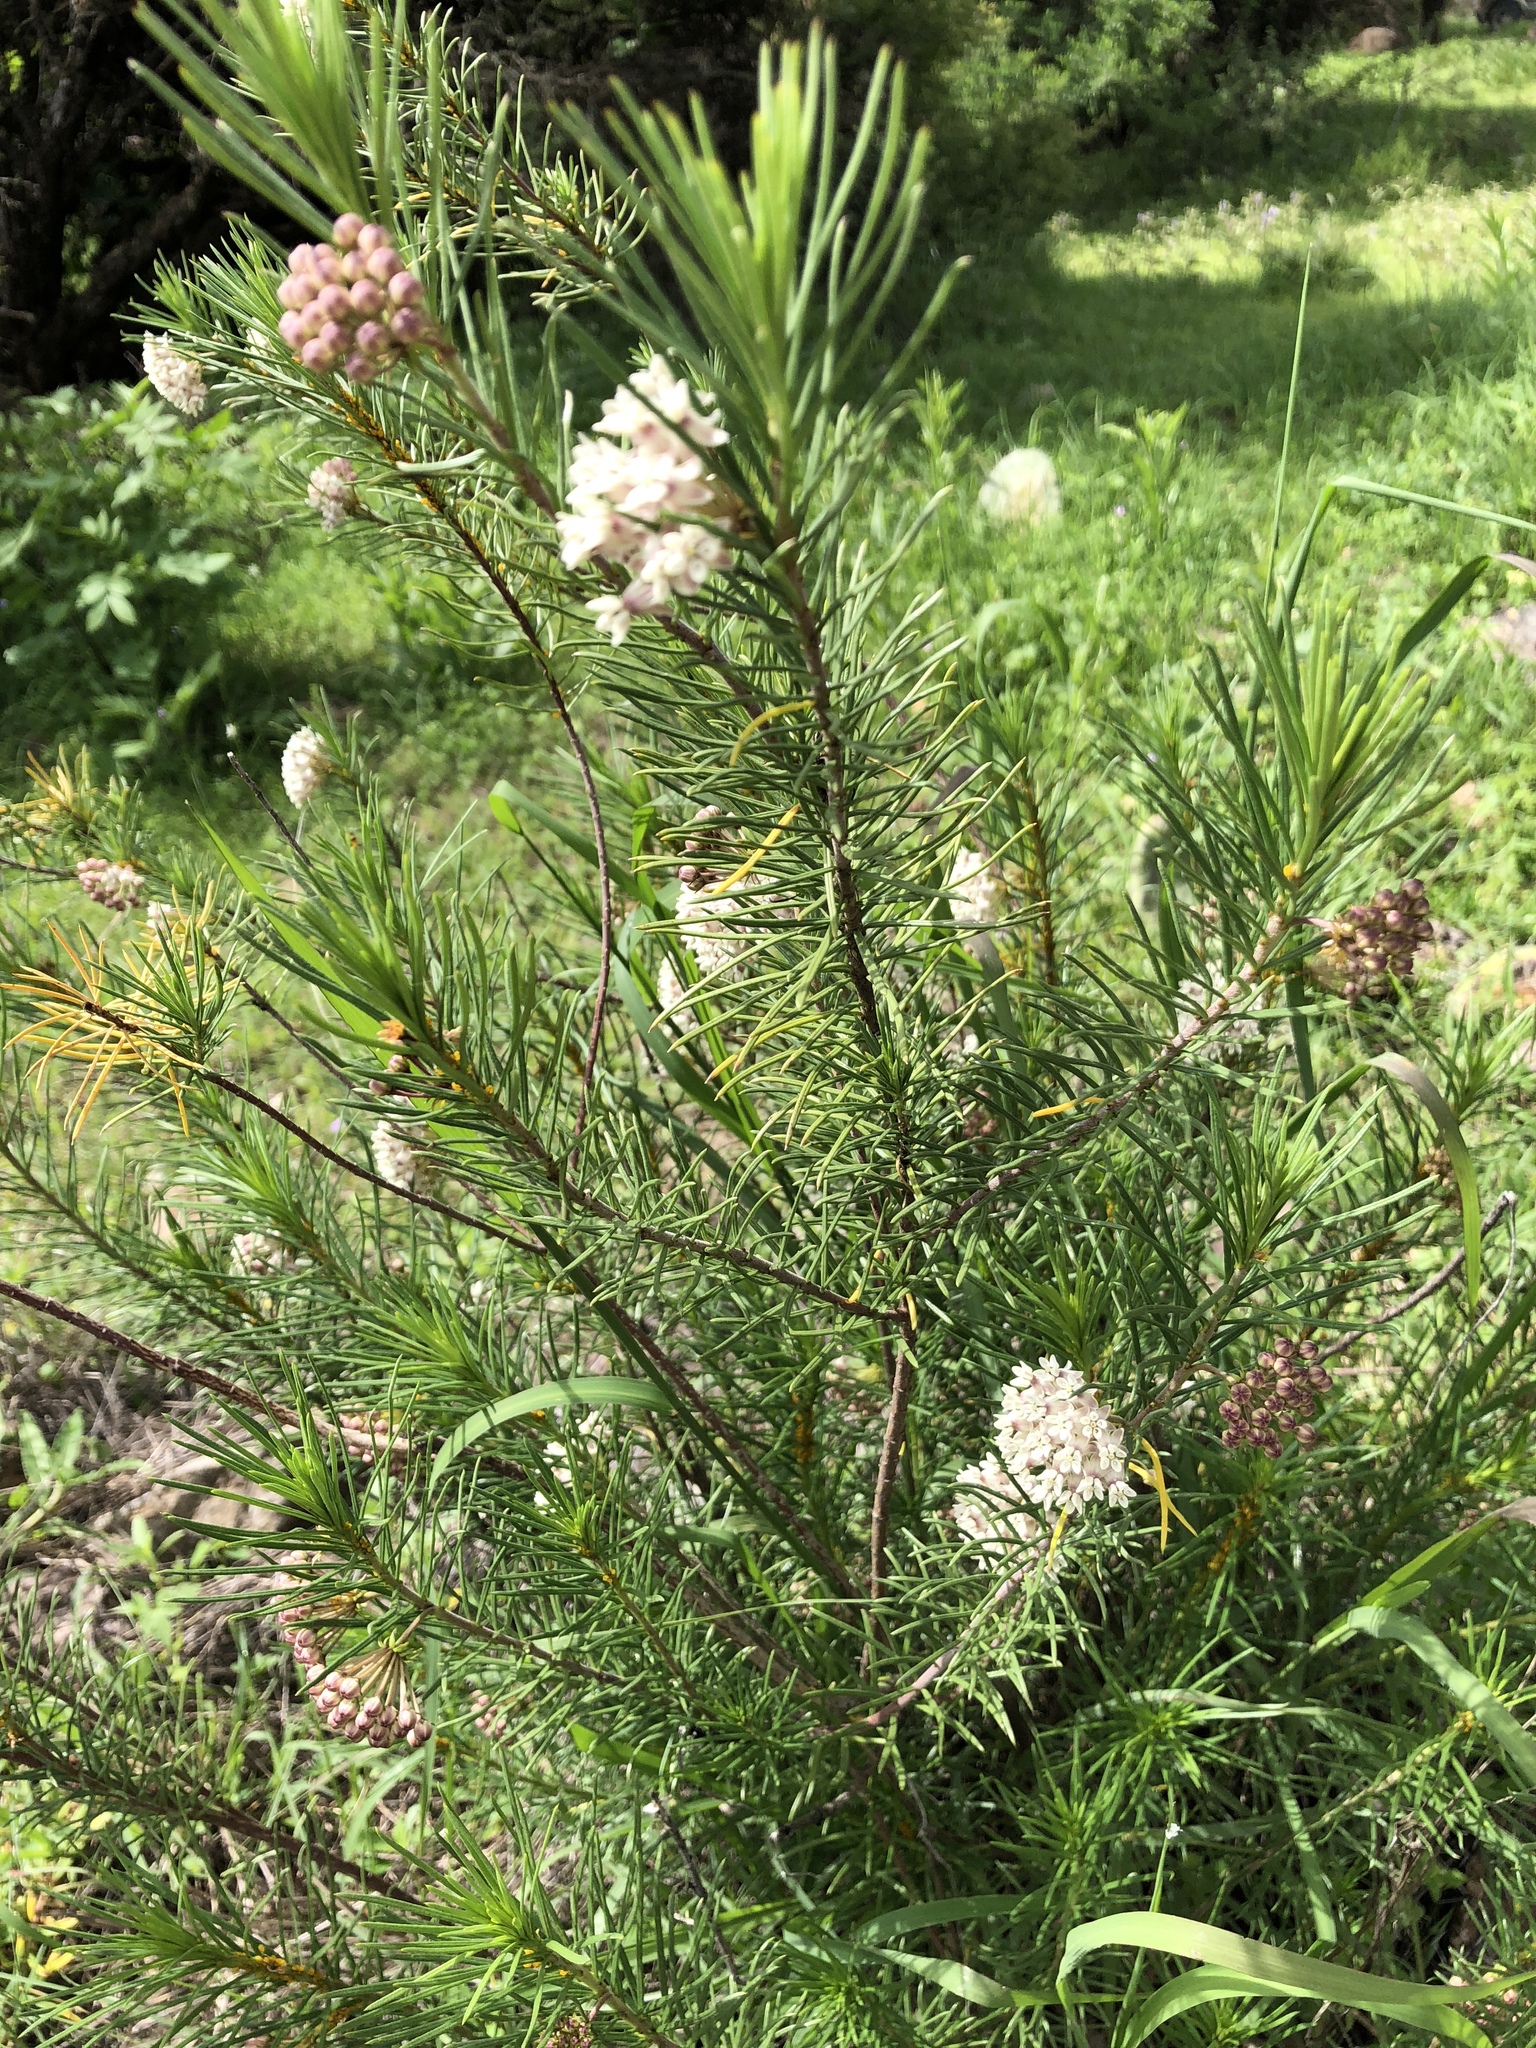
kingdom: Plantae
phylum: Tracheophyta
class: Magnoliopsida
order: Gentianales
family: Apocynaceae
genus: Asclepias
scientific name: Asclepias linaria
